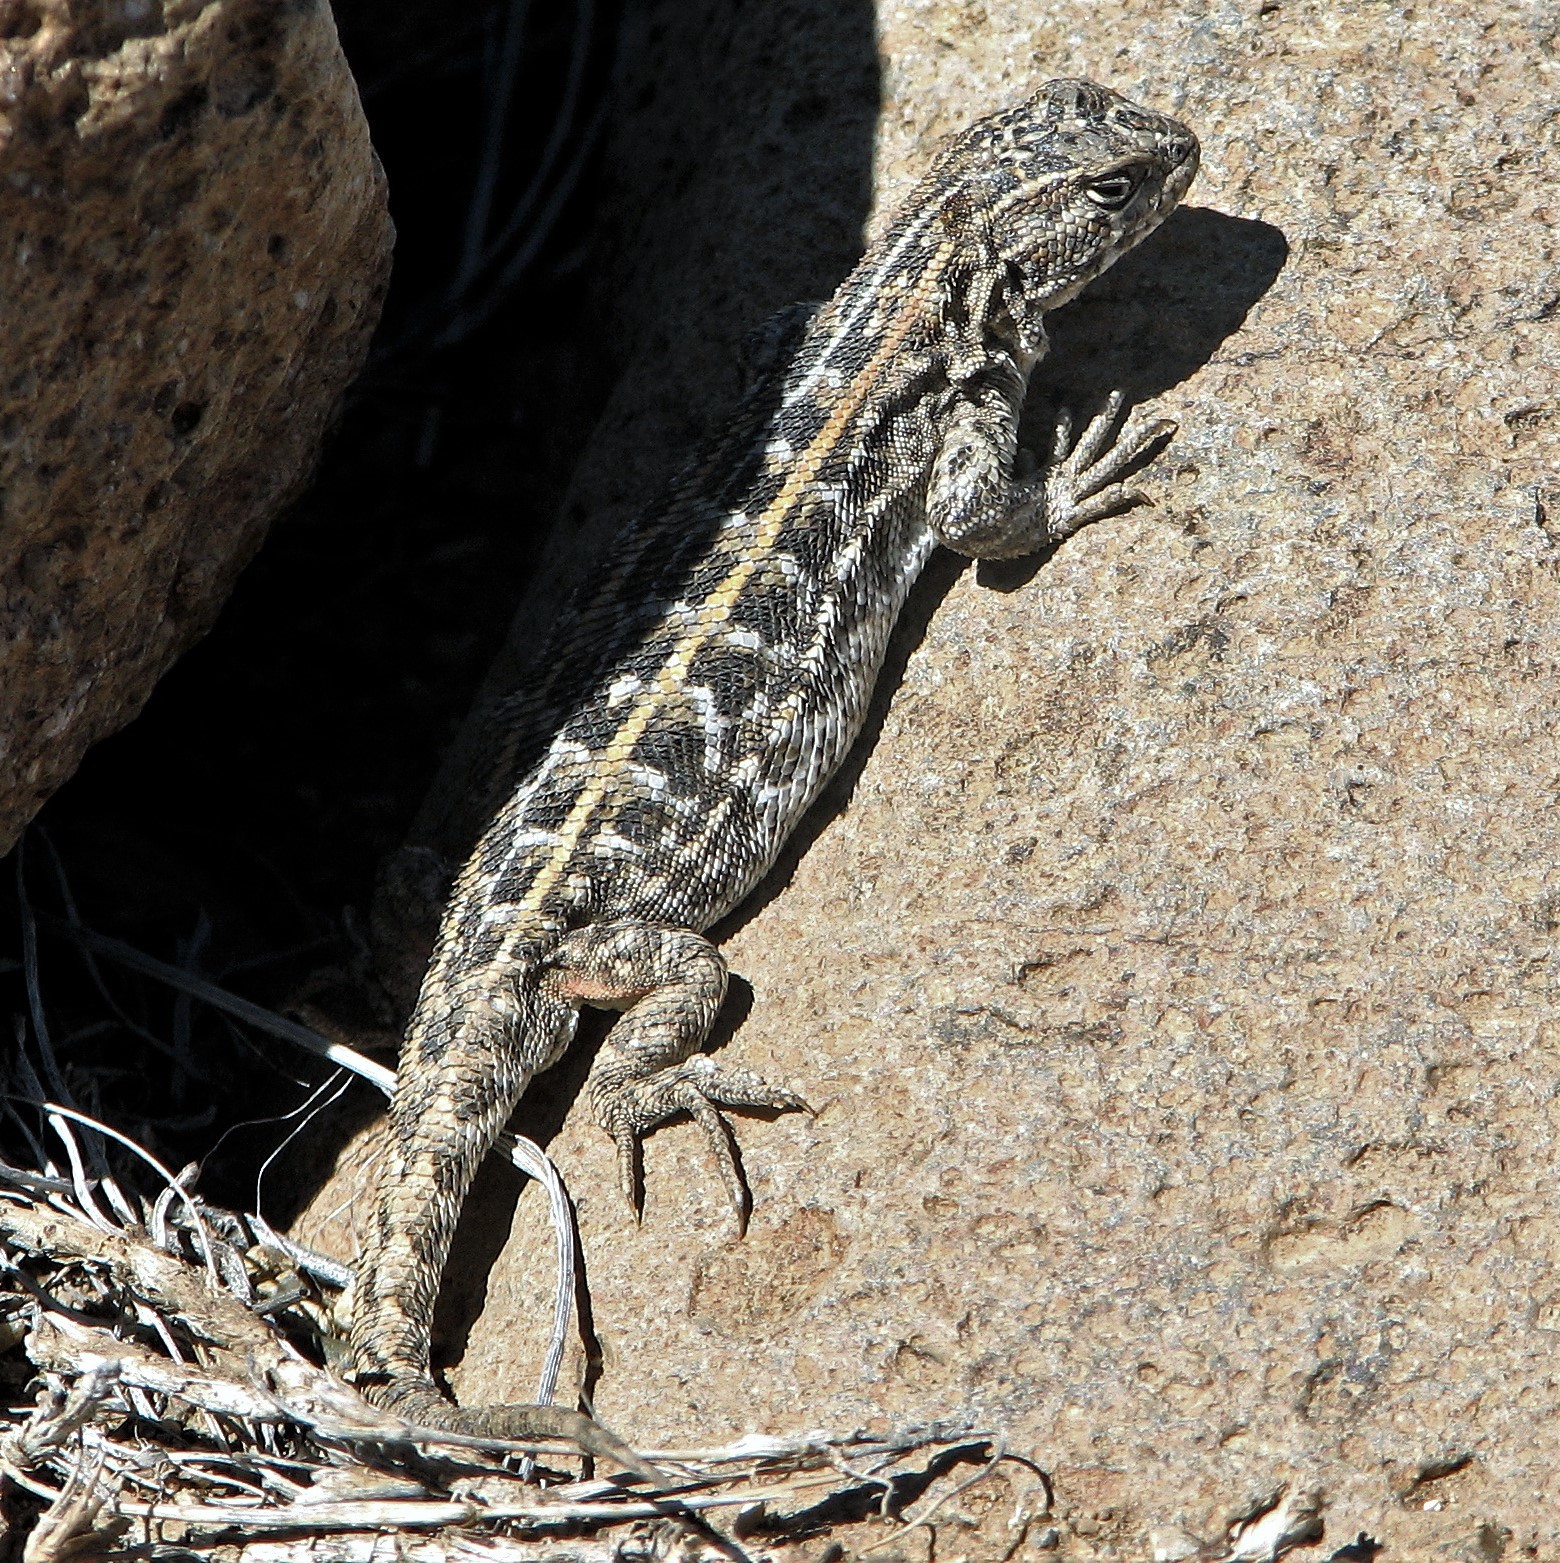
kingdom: Animalia
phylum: Chordata
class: Squamata
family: Liolaemidae
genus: Liolaemus
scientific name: Liolaemus avilai
